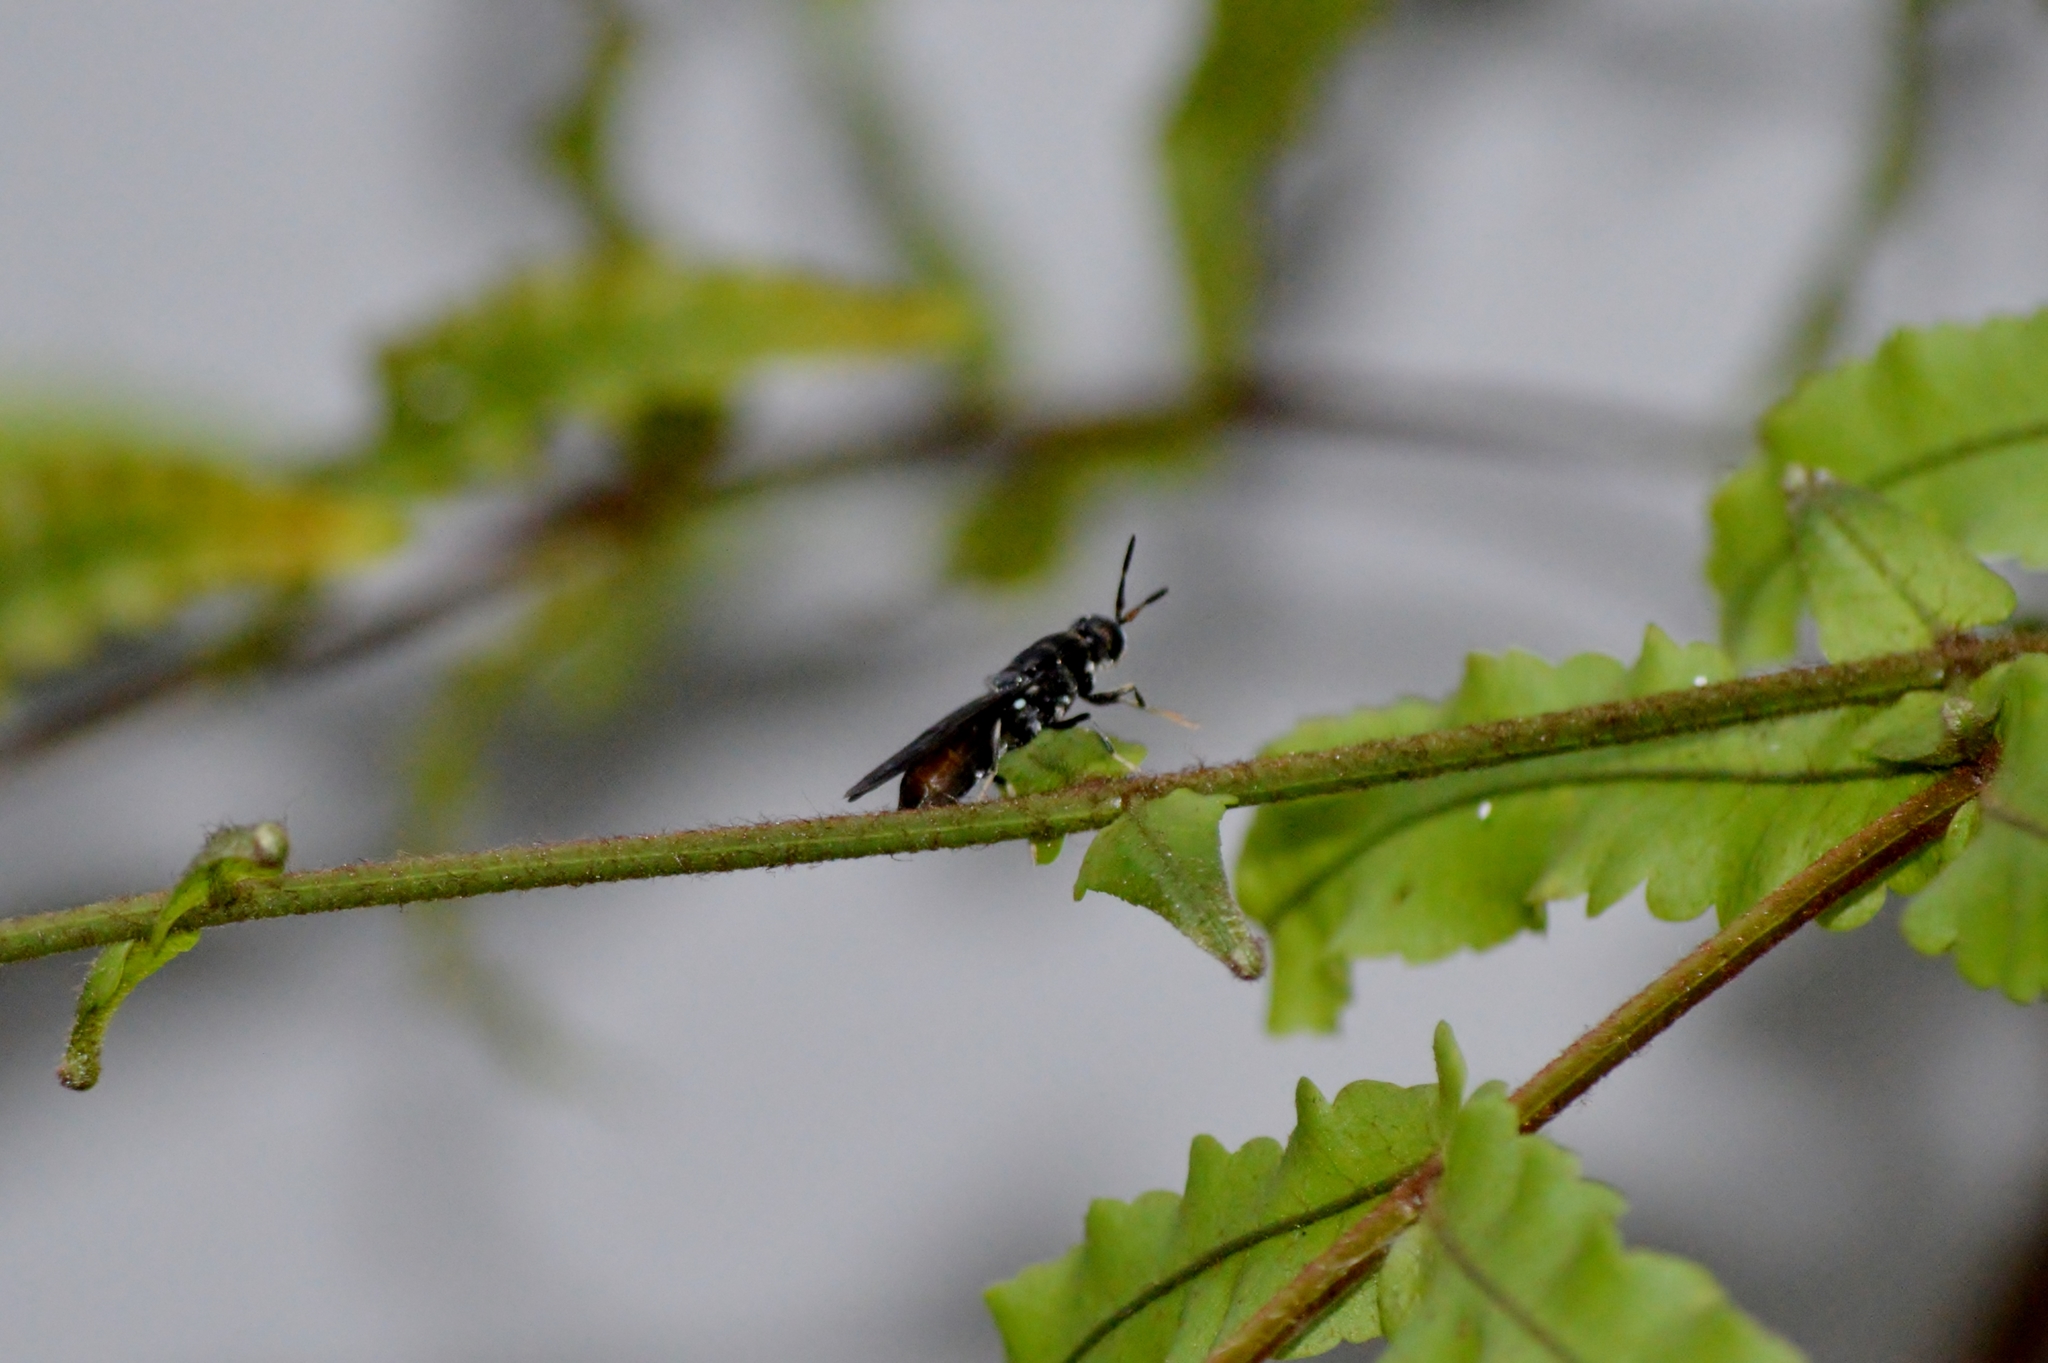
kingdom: Animalia
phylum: Arthropoda
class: Insecta
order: Diptera
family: Stratiomyidae
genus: Hermetia
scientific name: Hermetia illucens
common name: Black soldier fly
